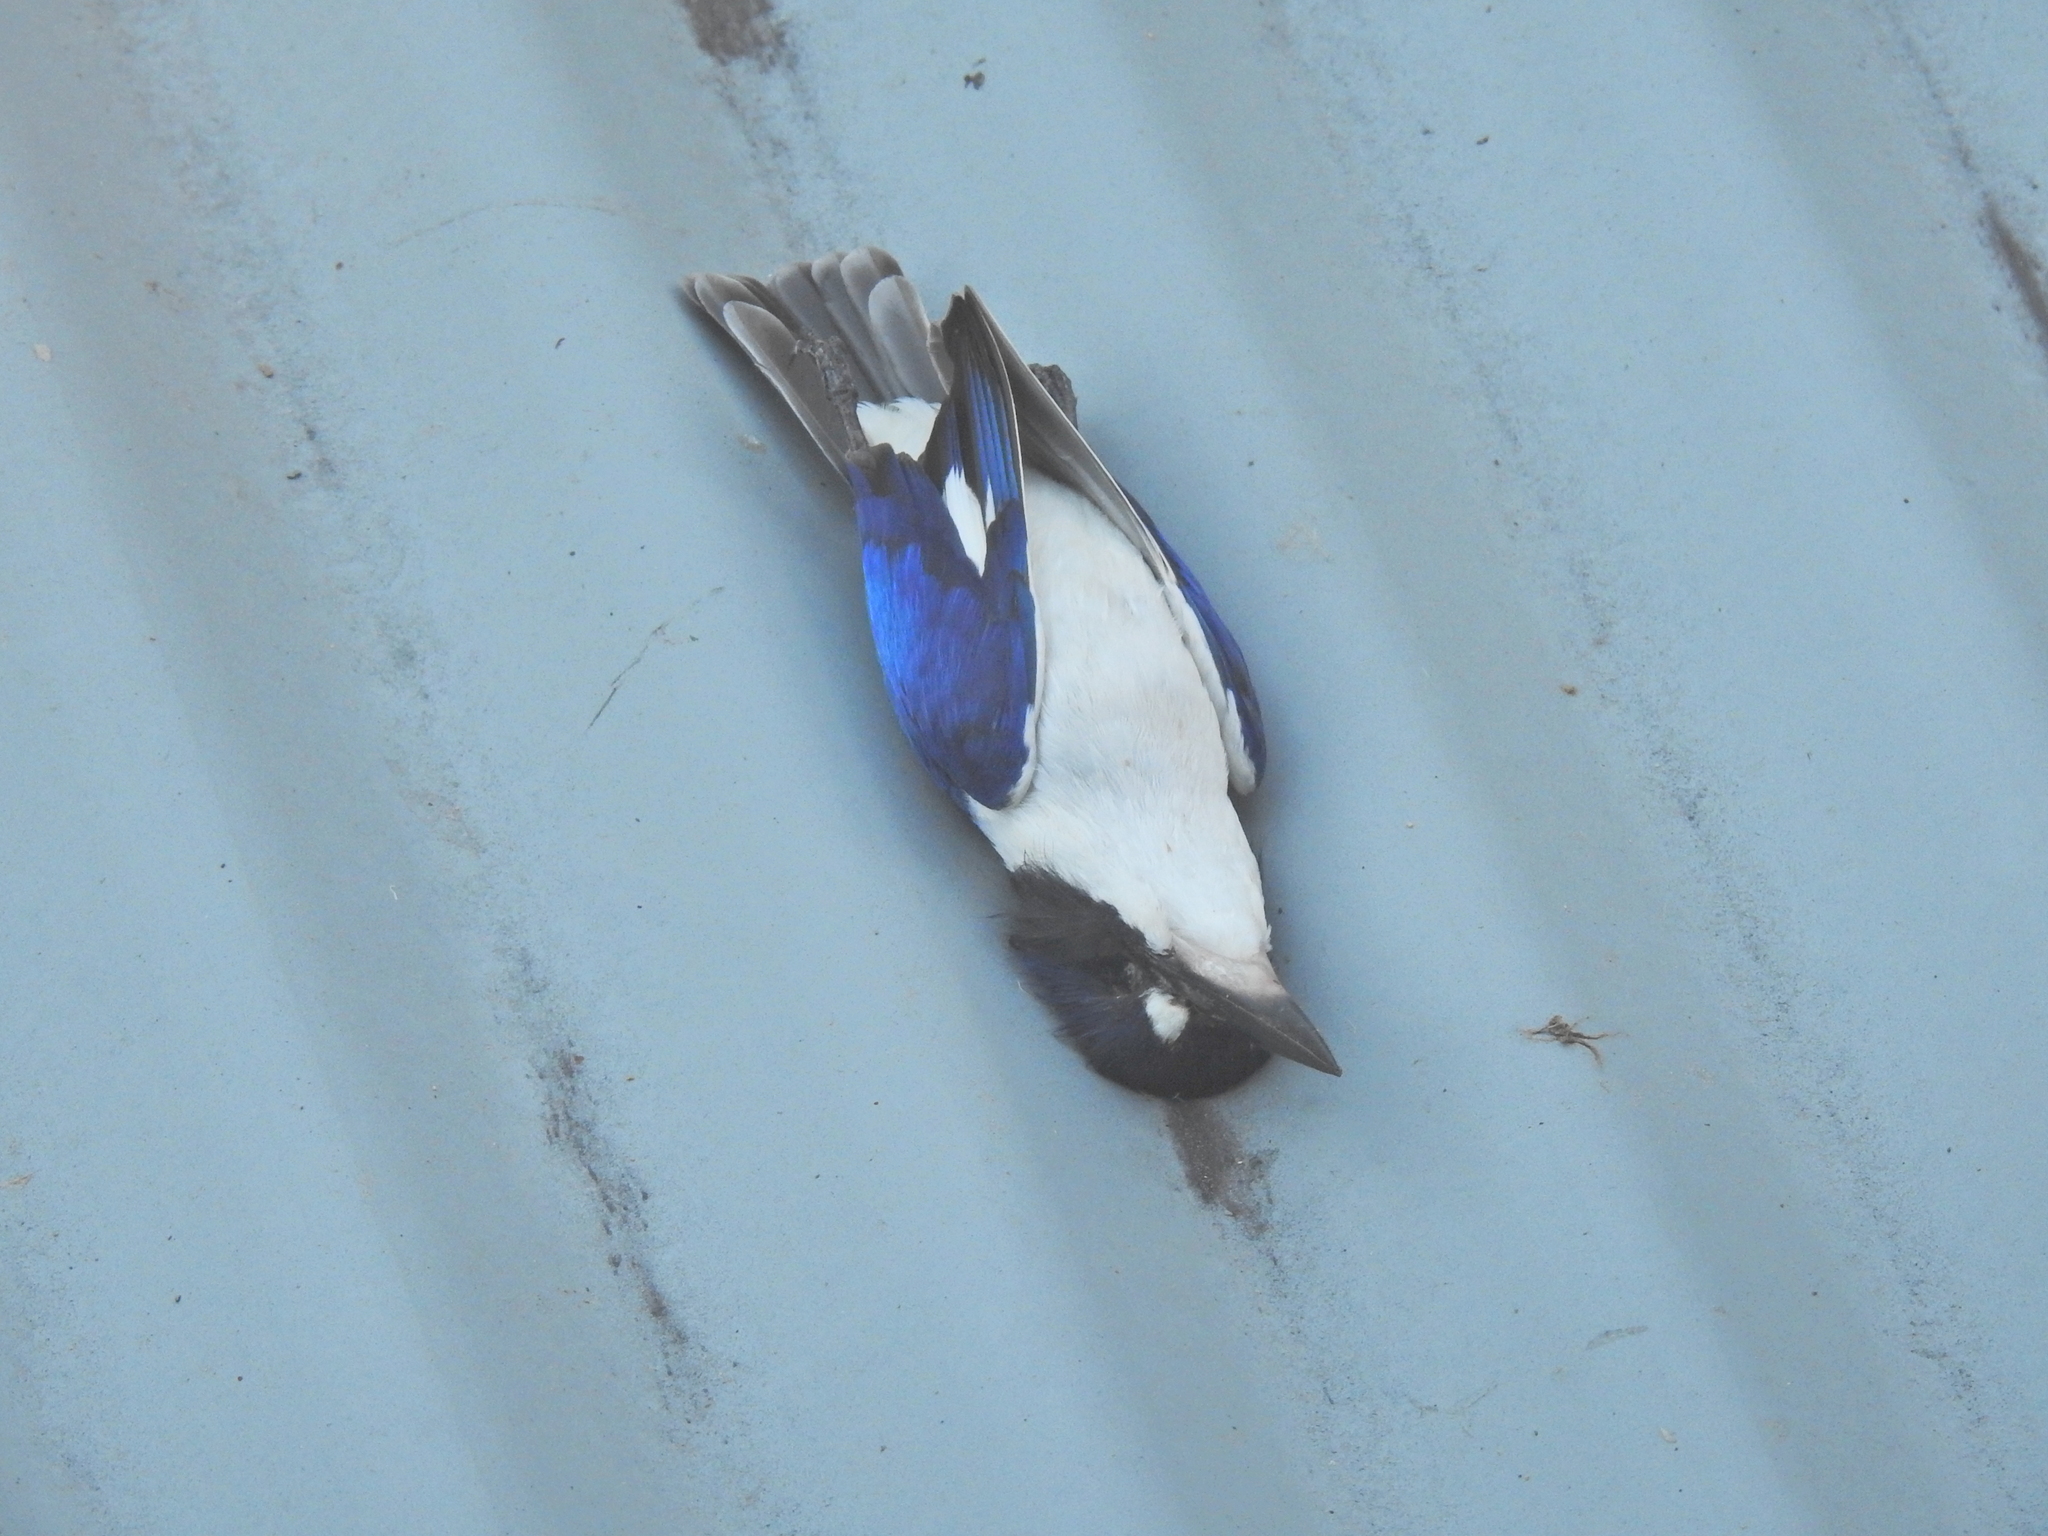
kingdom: Animalia
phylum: Chordata
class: Aves
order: Coraciiformes
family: Alcedinidae
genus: Todiramphus
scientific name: Todiramphus macleayii
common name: Forest kingfisher
